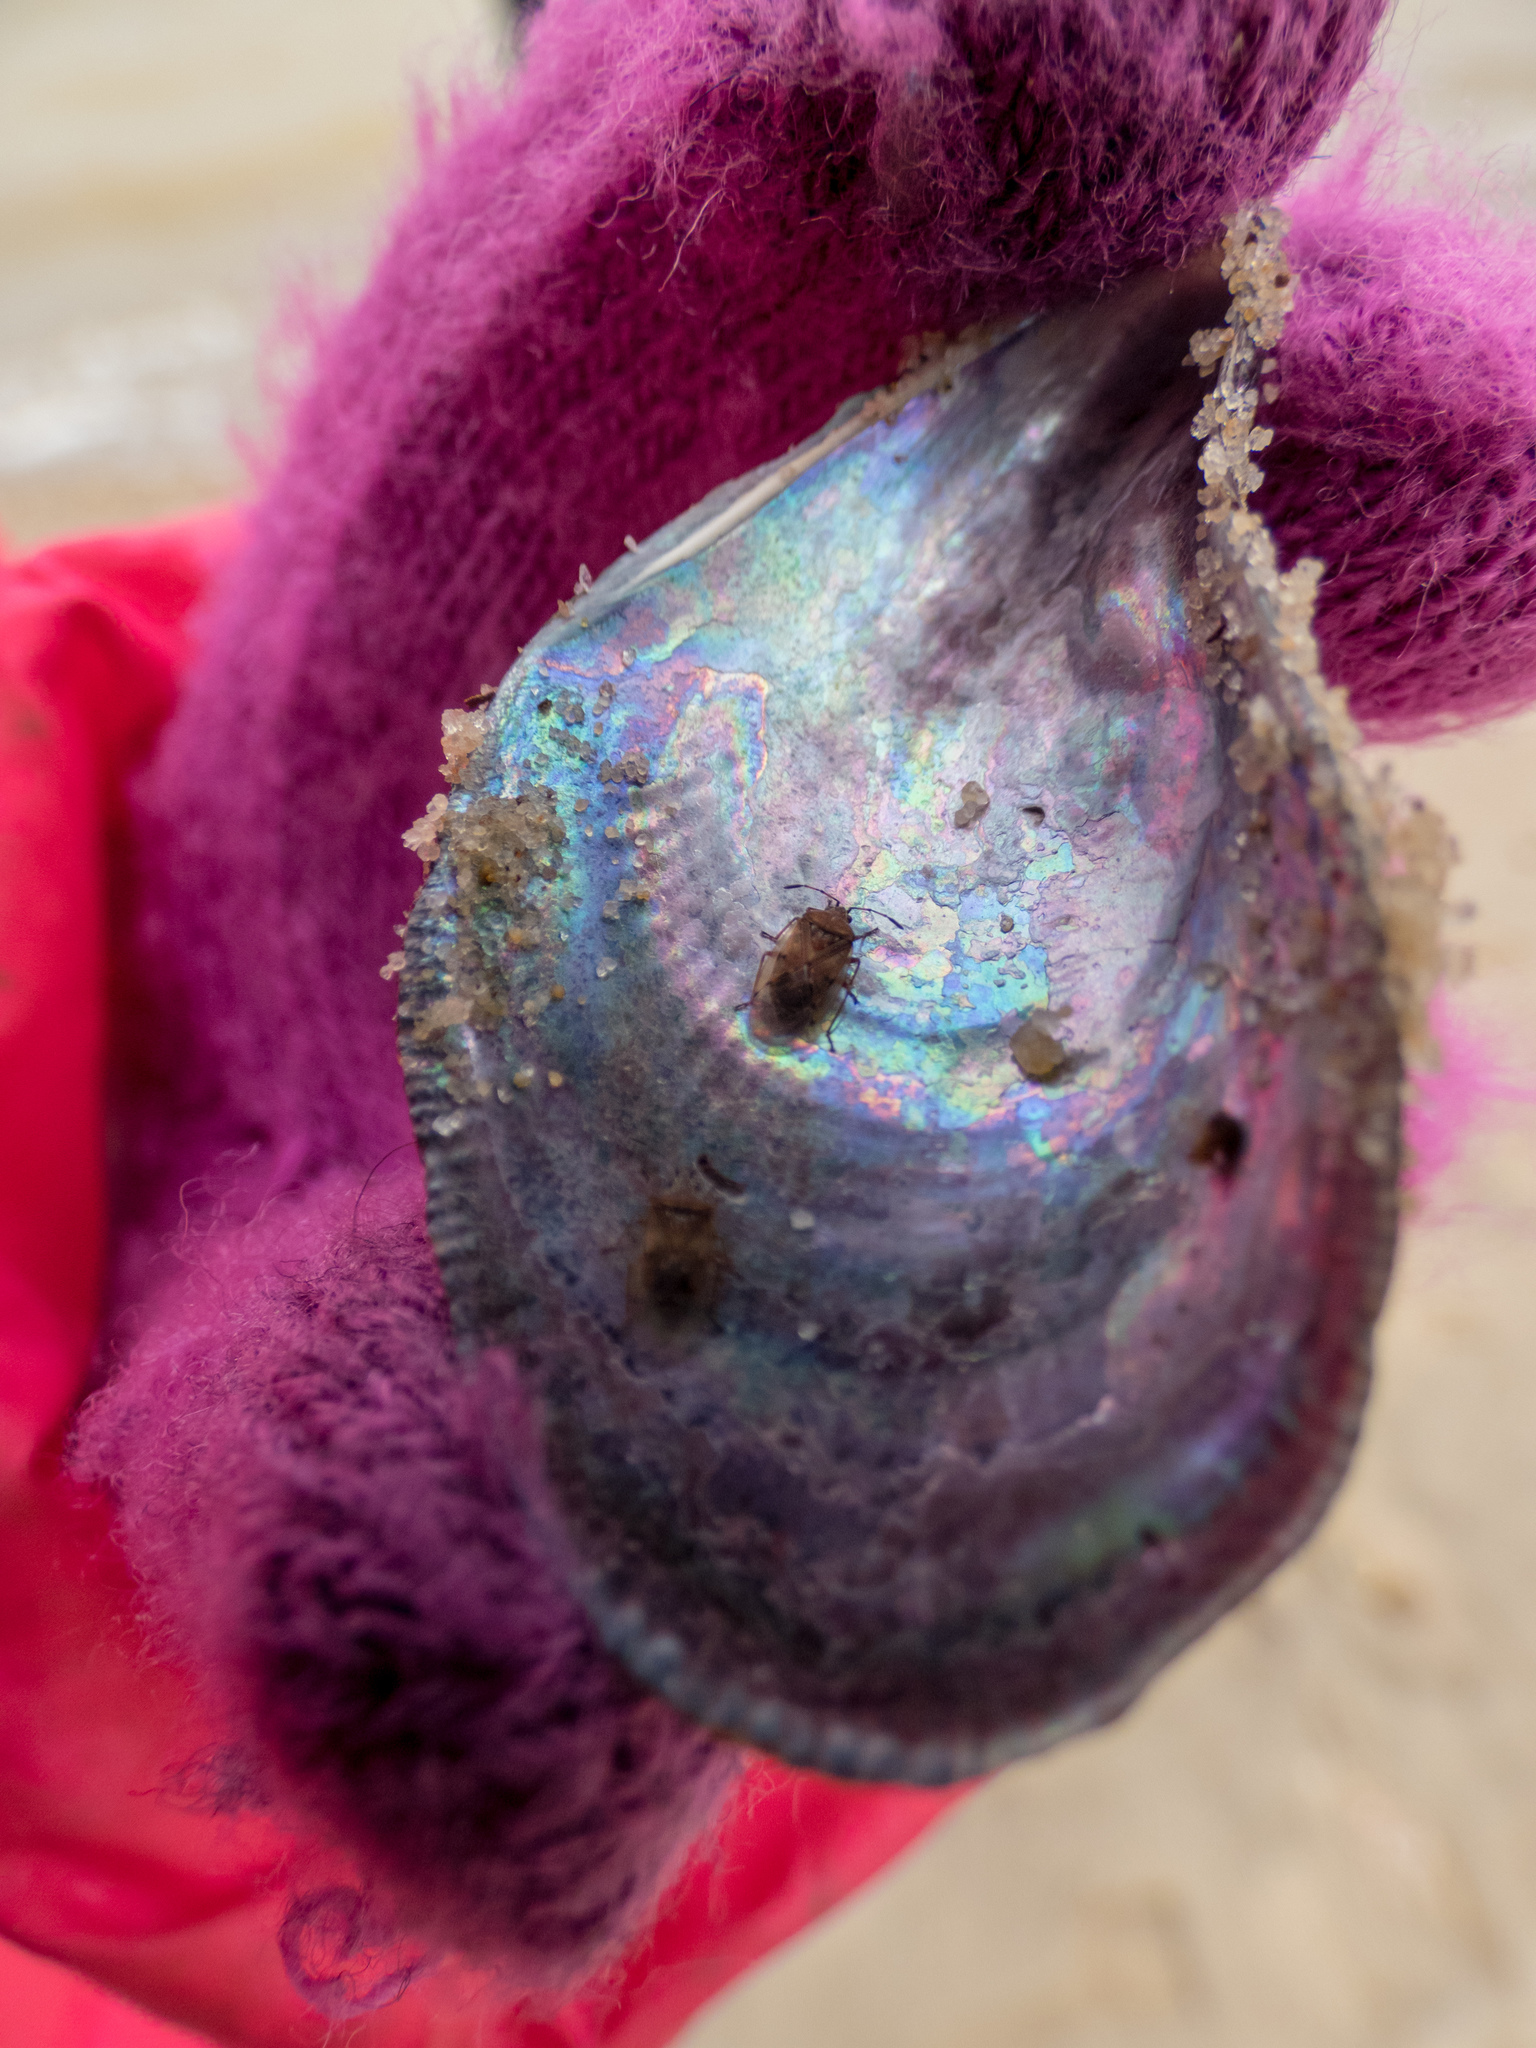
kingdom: Animalia
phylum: Mollusca
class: Bivalvia
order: Mytilida
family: Mytilidae
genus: Ischadium
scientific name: Ischadium recurvum
